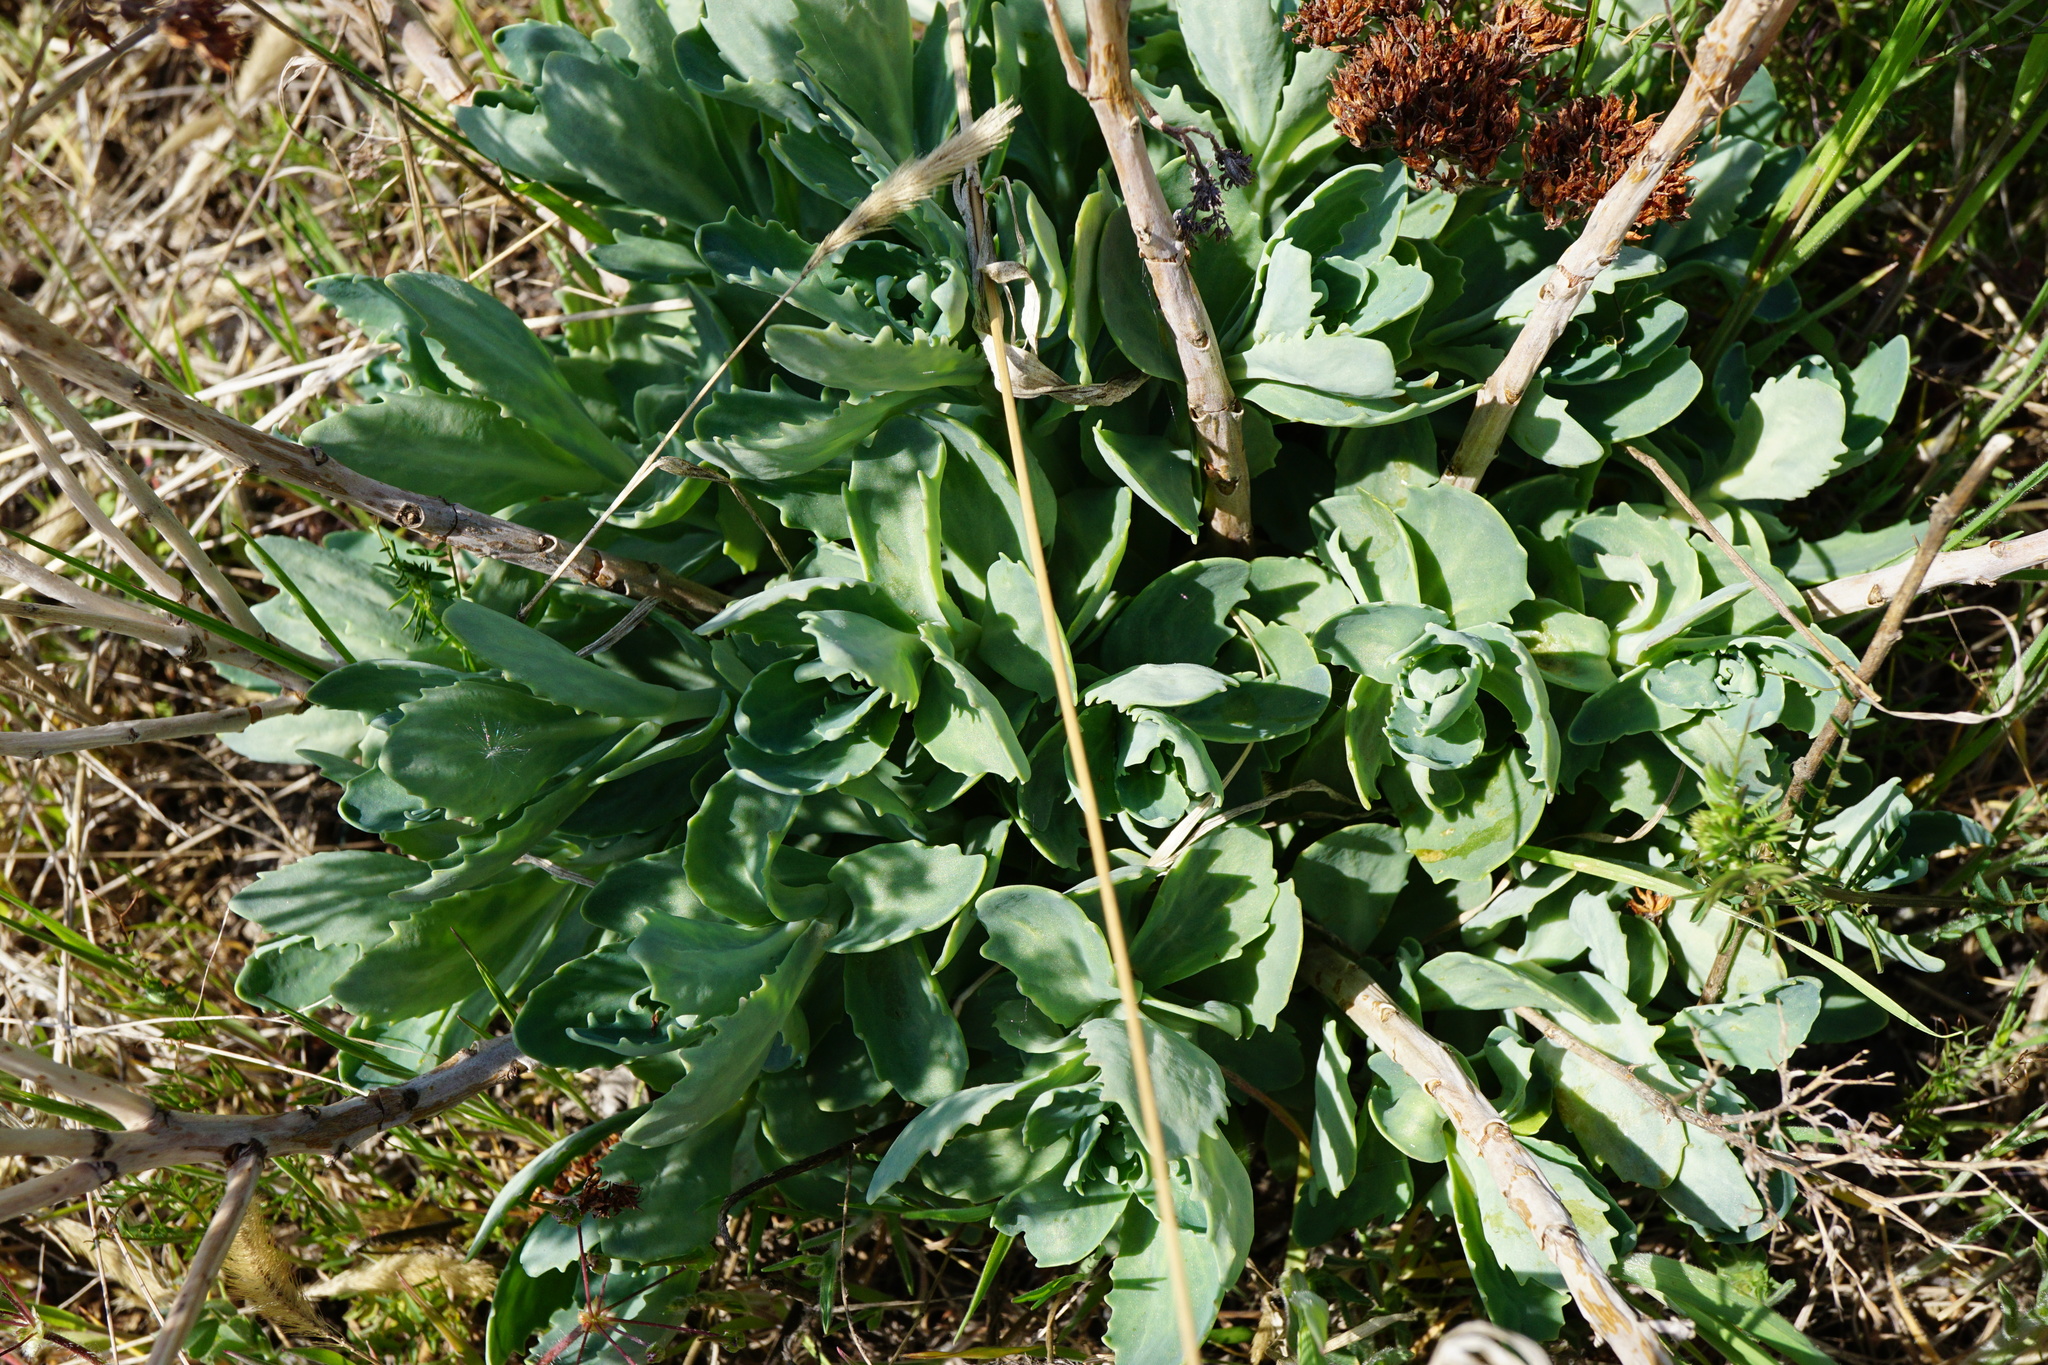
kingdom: Plantae
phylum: Tracheophyta
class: Magnoliopsida
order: Saxifragales
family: Crassulaceae
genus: Hylotelephium
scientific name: Hylotelephium
